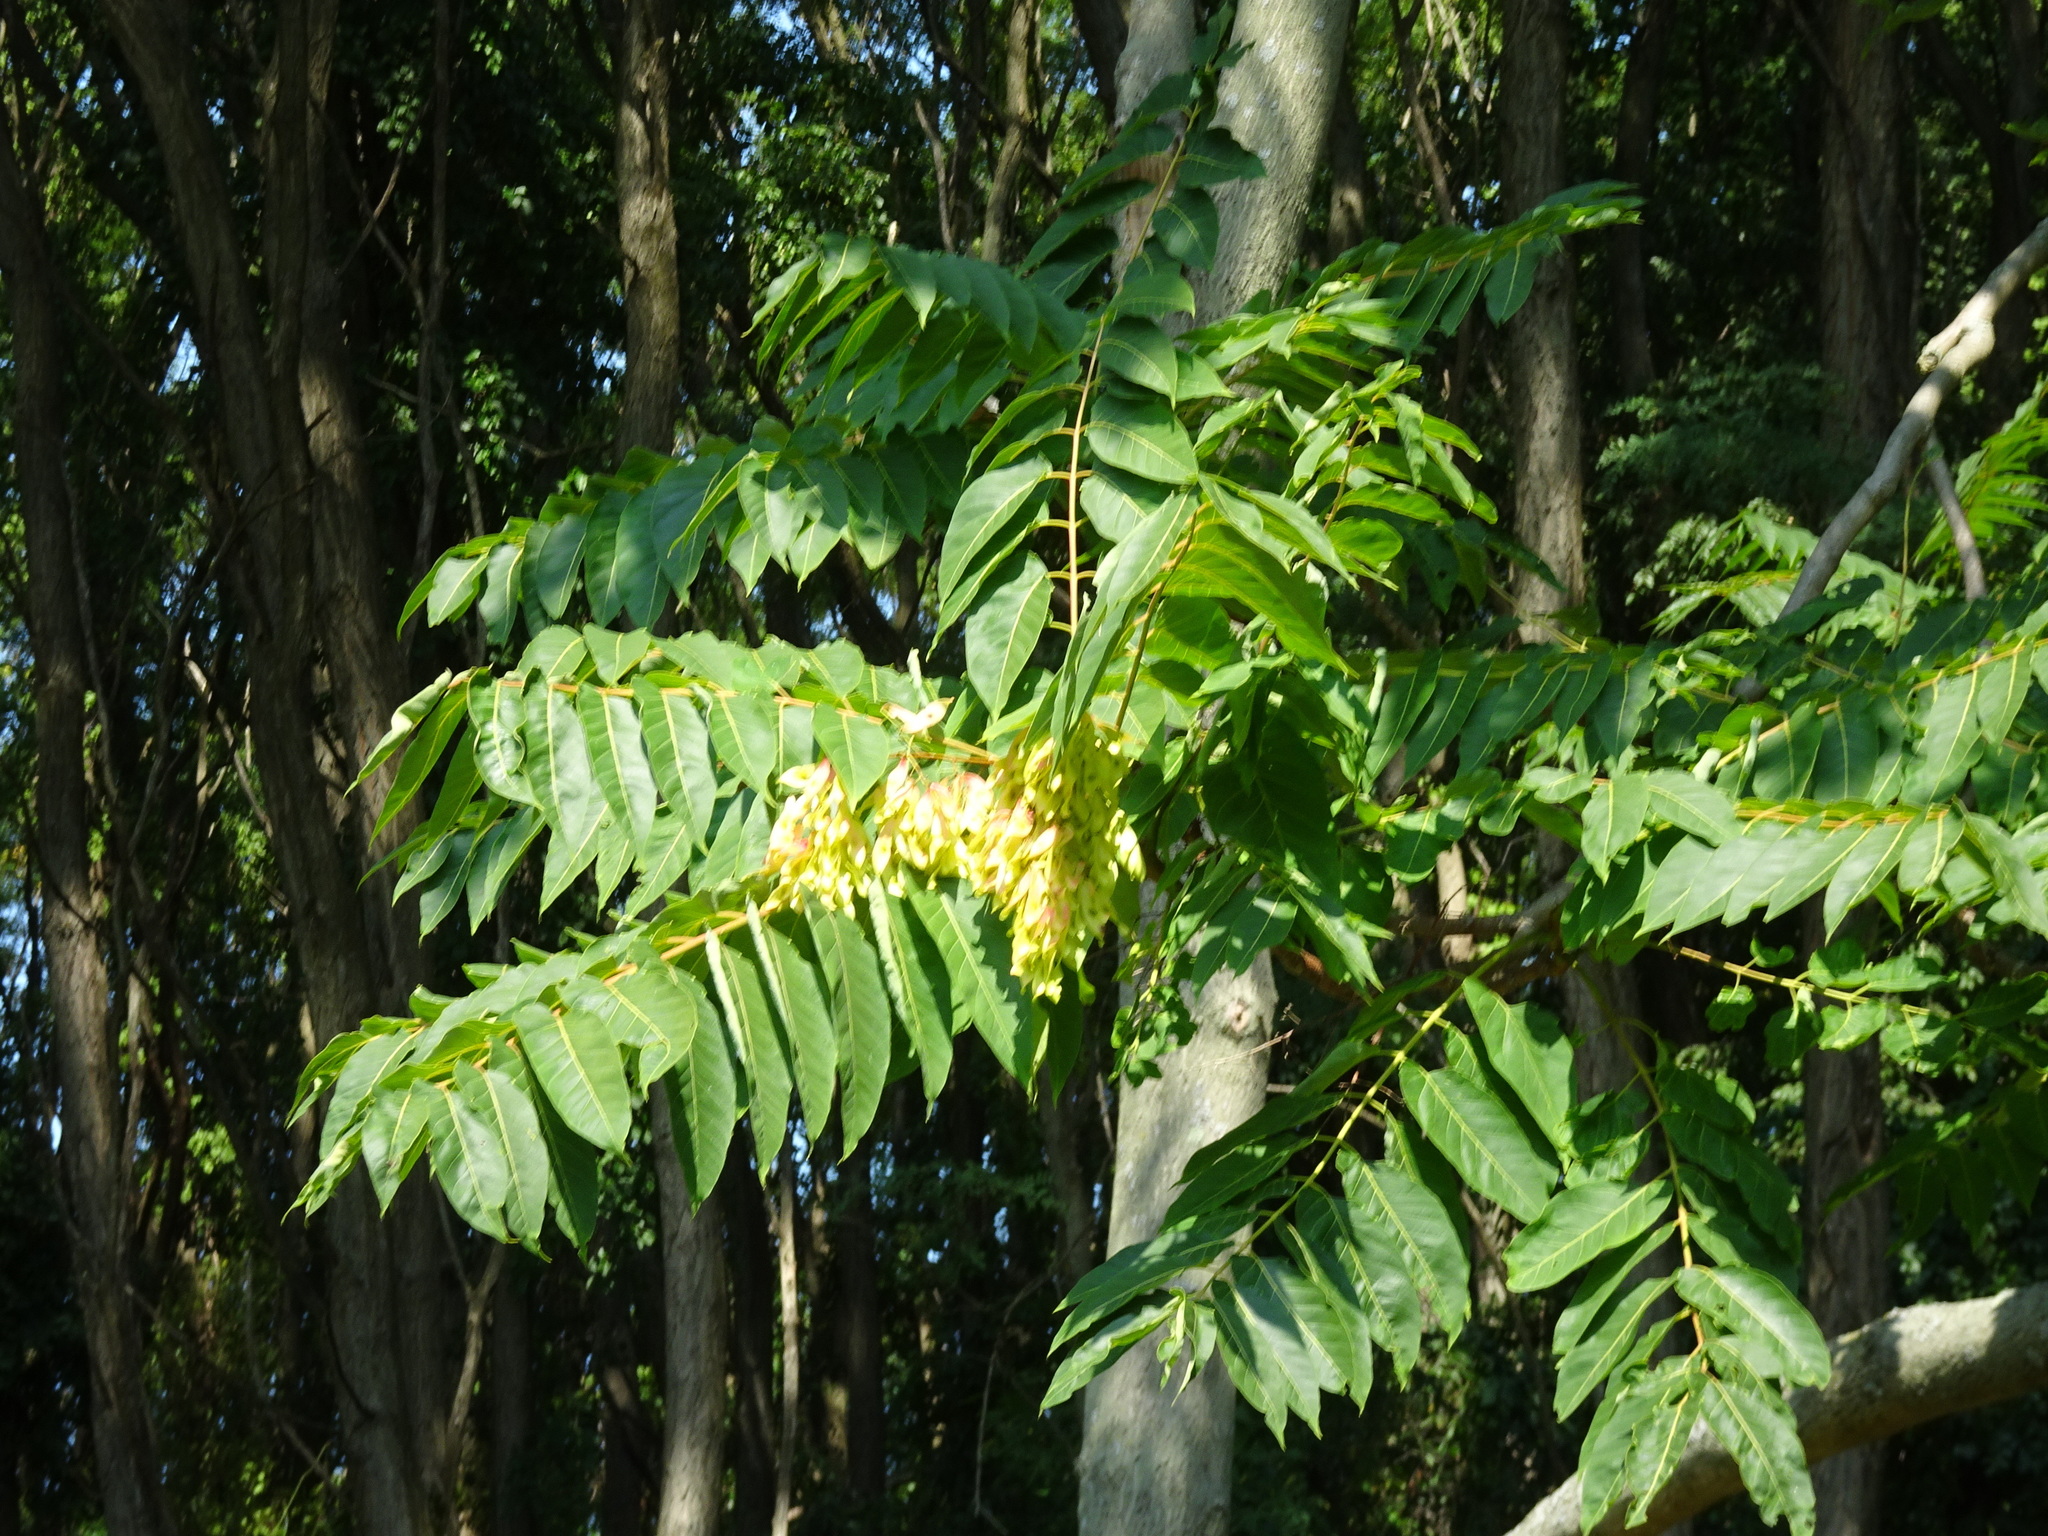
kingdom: Plantae
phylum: Tracheophyta
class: Magnoliopsida
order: Sapindales
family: Simaroubaceae
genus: Ailanthus
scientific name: Ailanthus altissima
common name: Tree-of-heaven
